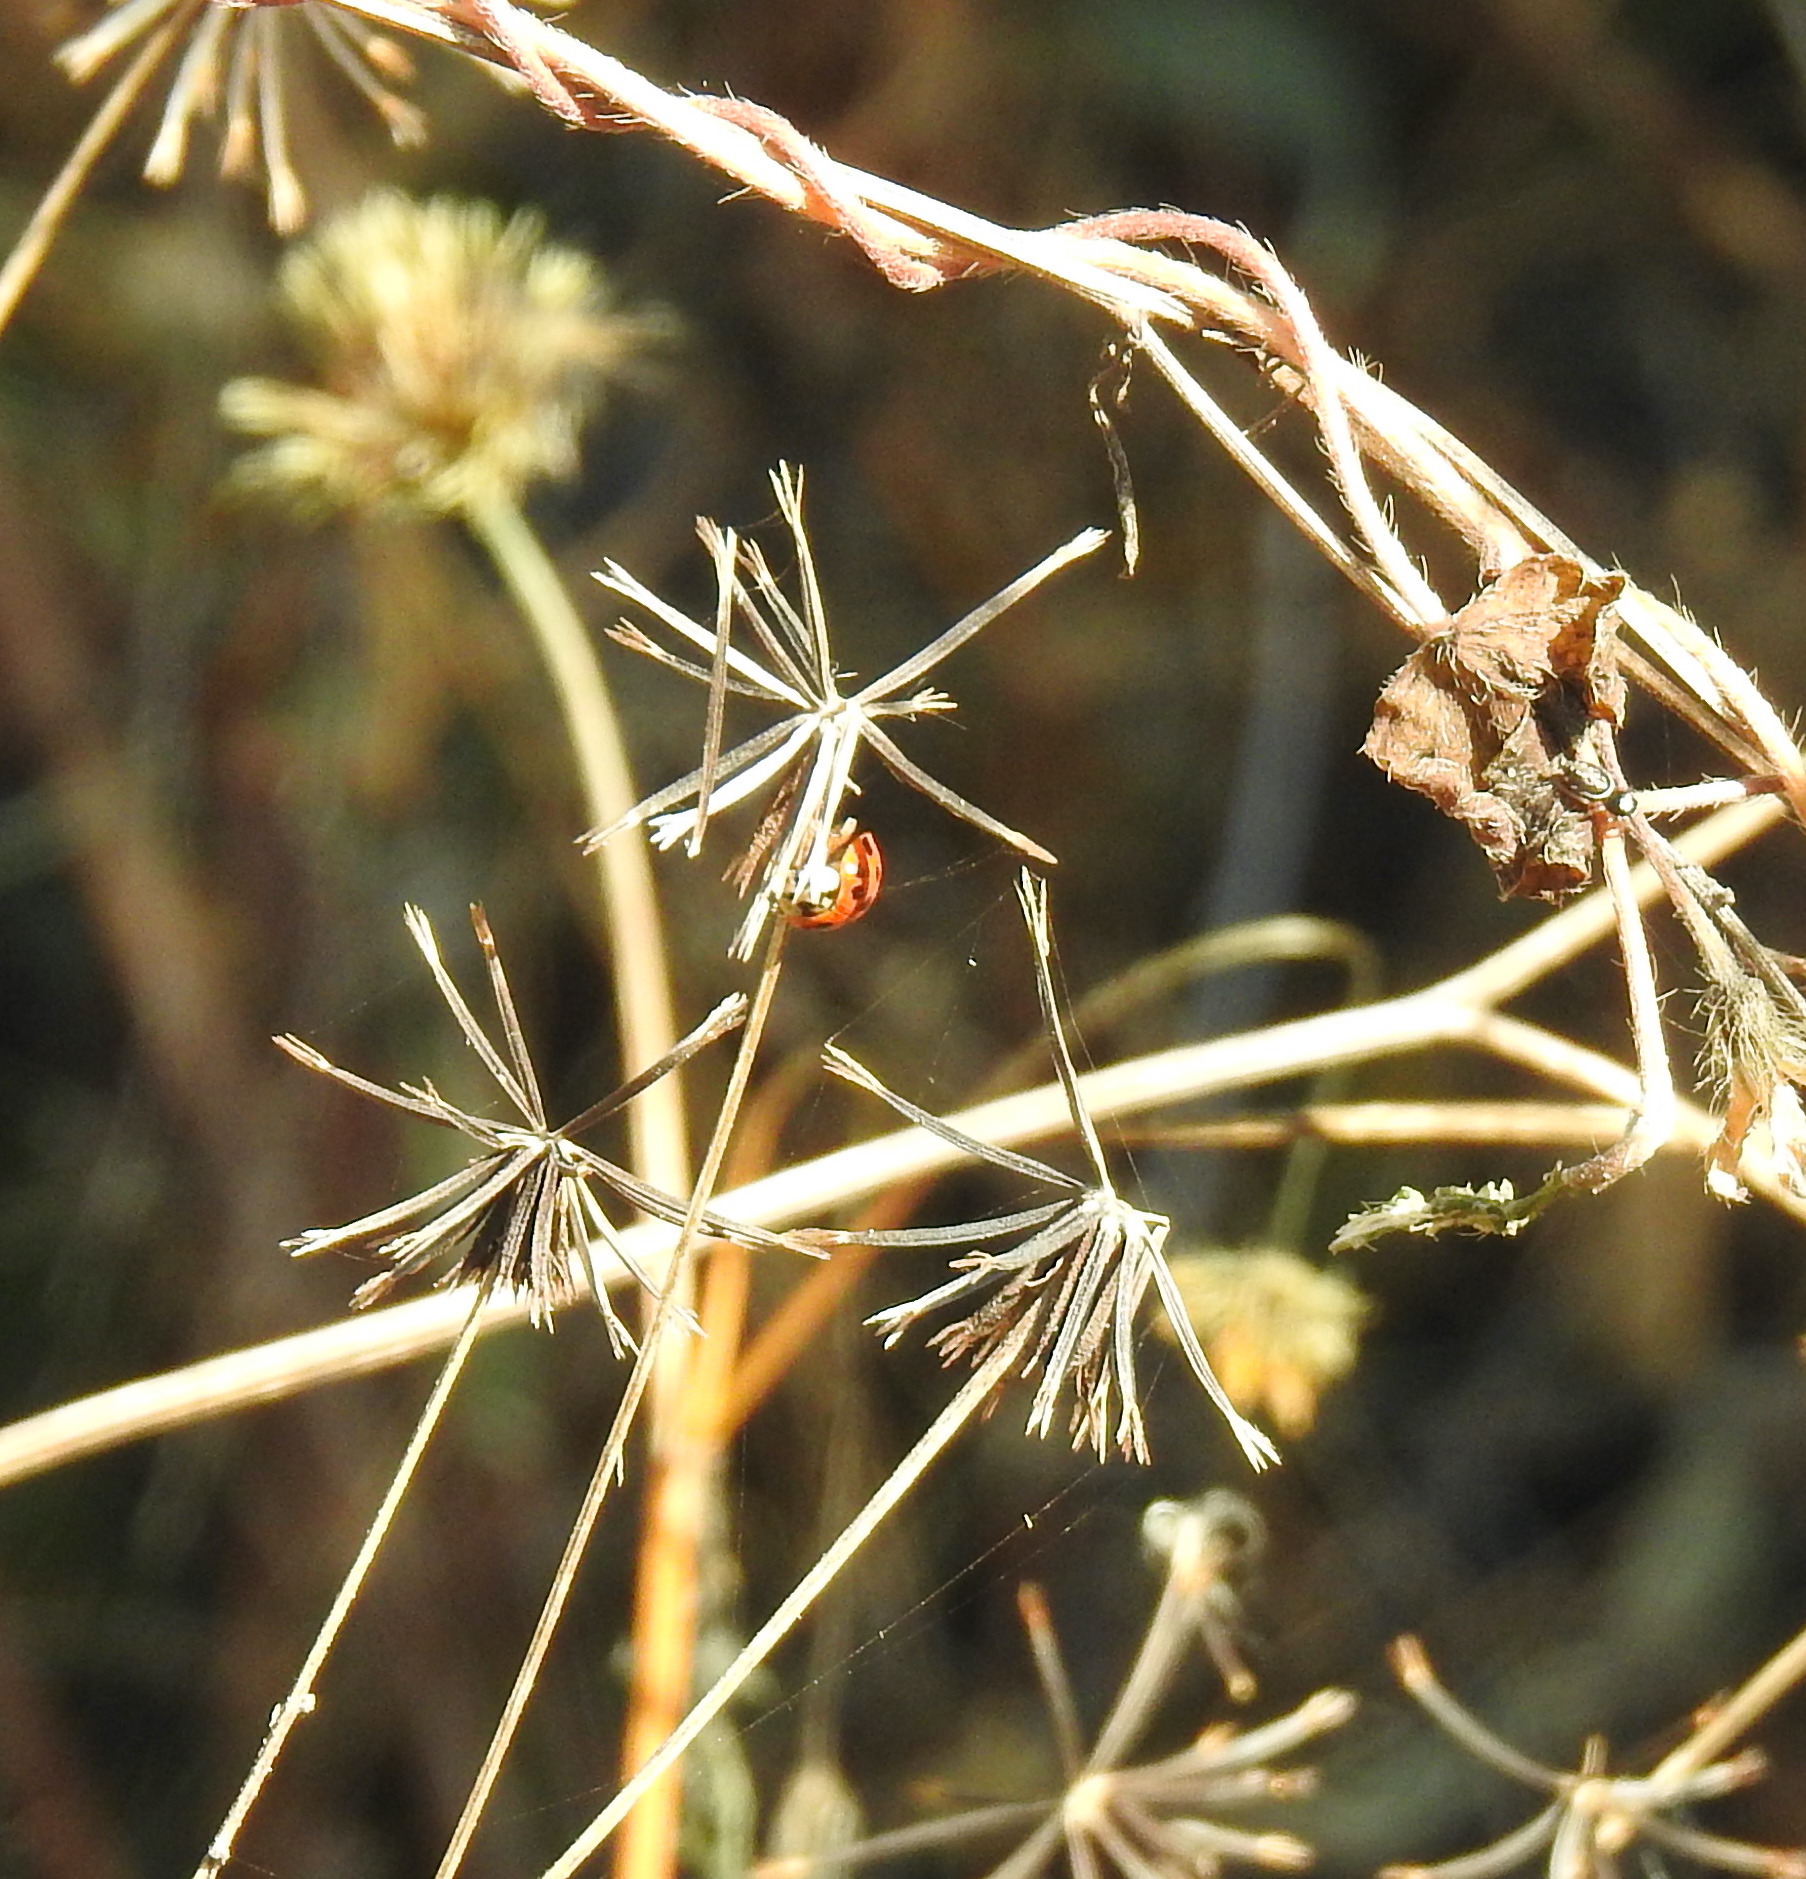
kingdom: Animalia
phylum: Arthropoda
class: Insecta
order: Coleoptera
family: Coccinellidae
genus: Harmonia
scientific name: Harmonia axyridis
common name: Harlequin ladybird
